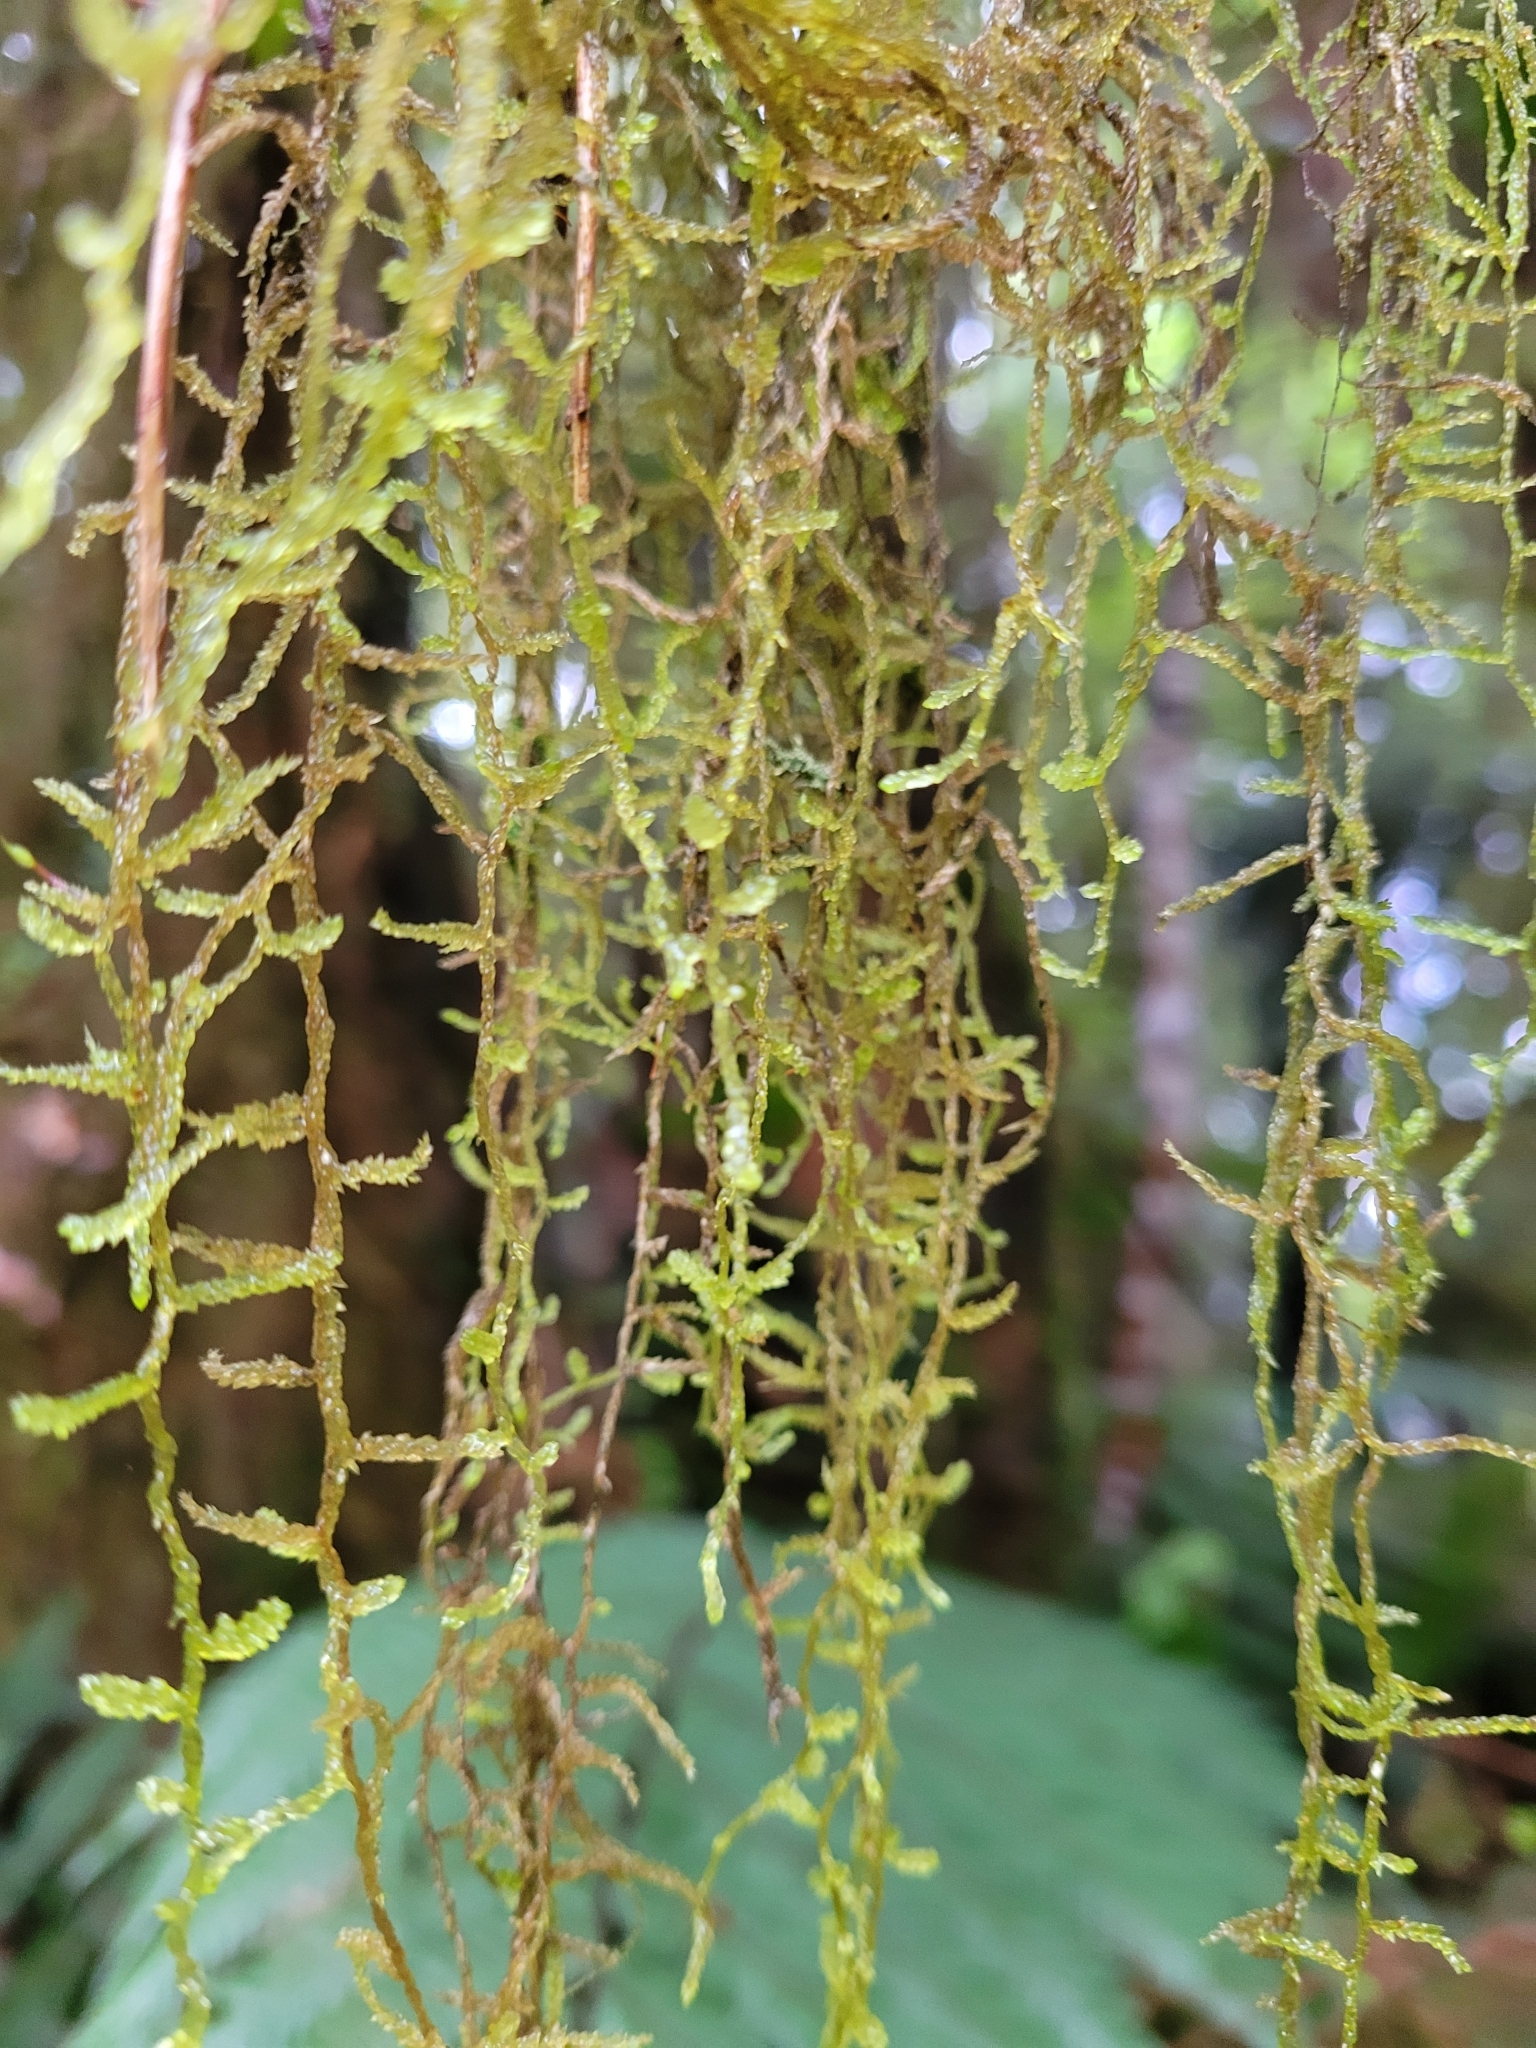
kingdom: Plantae
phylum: Bryophyta
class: Bryopsida
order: Hypnales
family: Lembophyllaceae
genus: Weymouthia
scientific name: Weymouthia mollis
